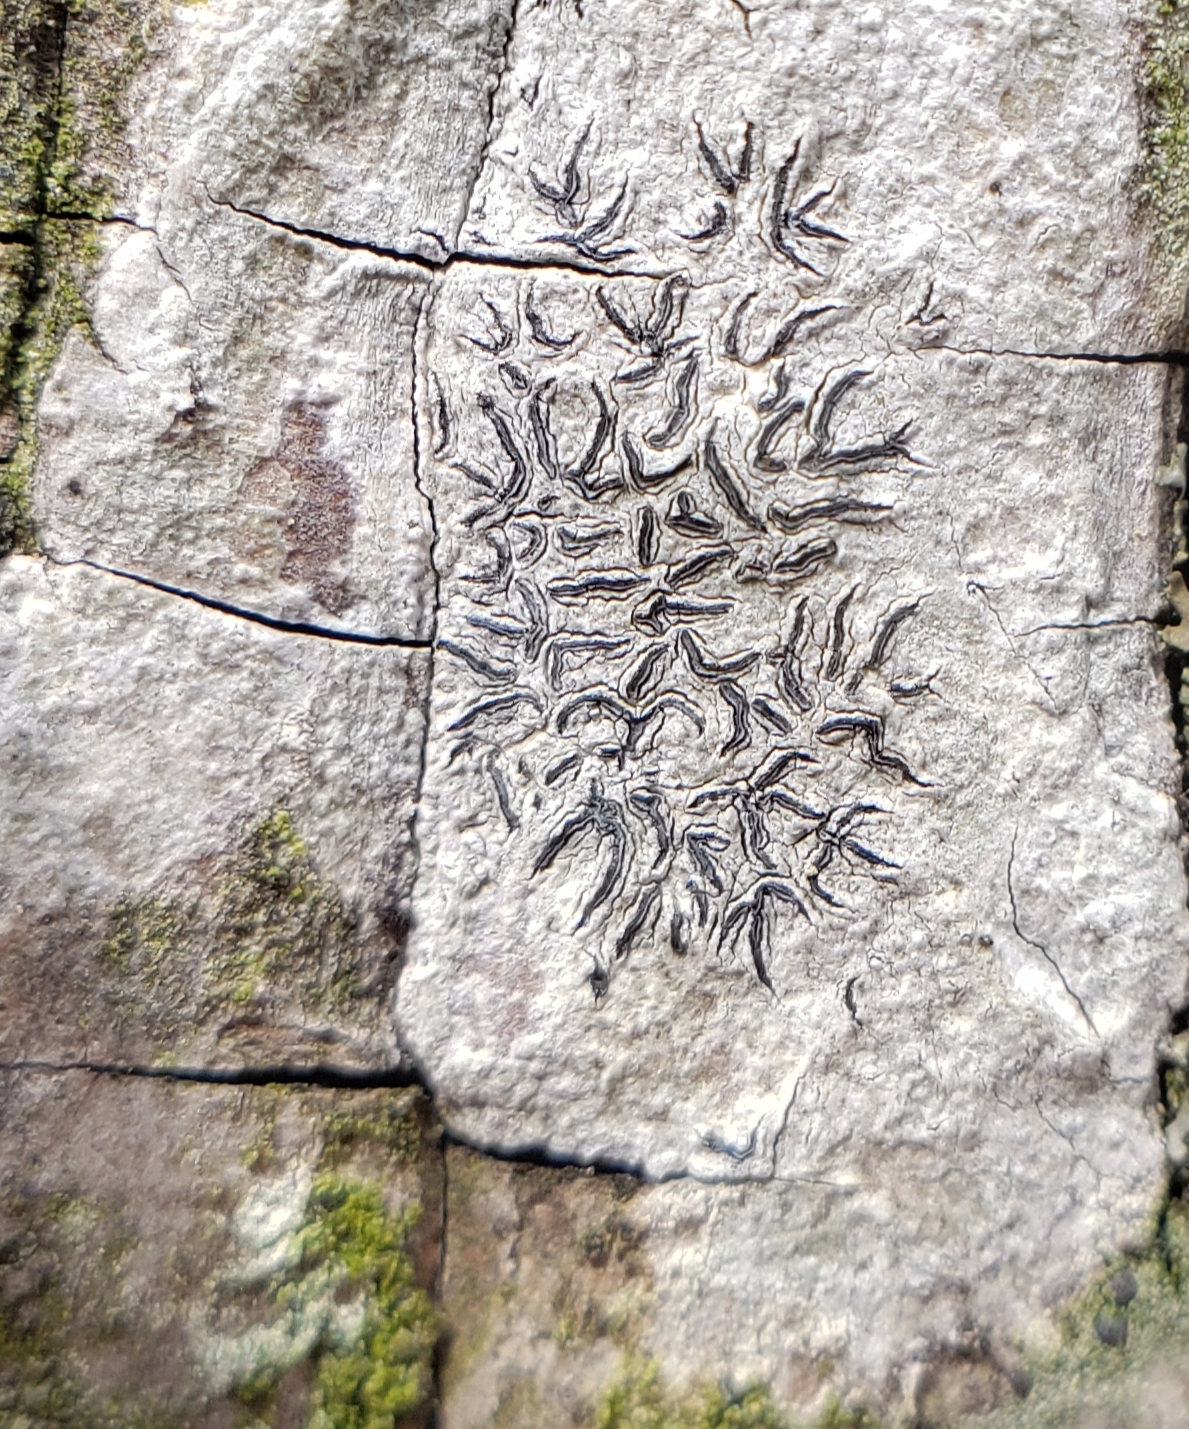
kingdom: Fungi
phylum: Ascomycota
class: Lecanoromycetes
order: Ostropales
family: Graphidaceae
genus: Graphis
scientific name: Graphis scripta
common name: Script lichen
